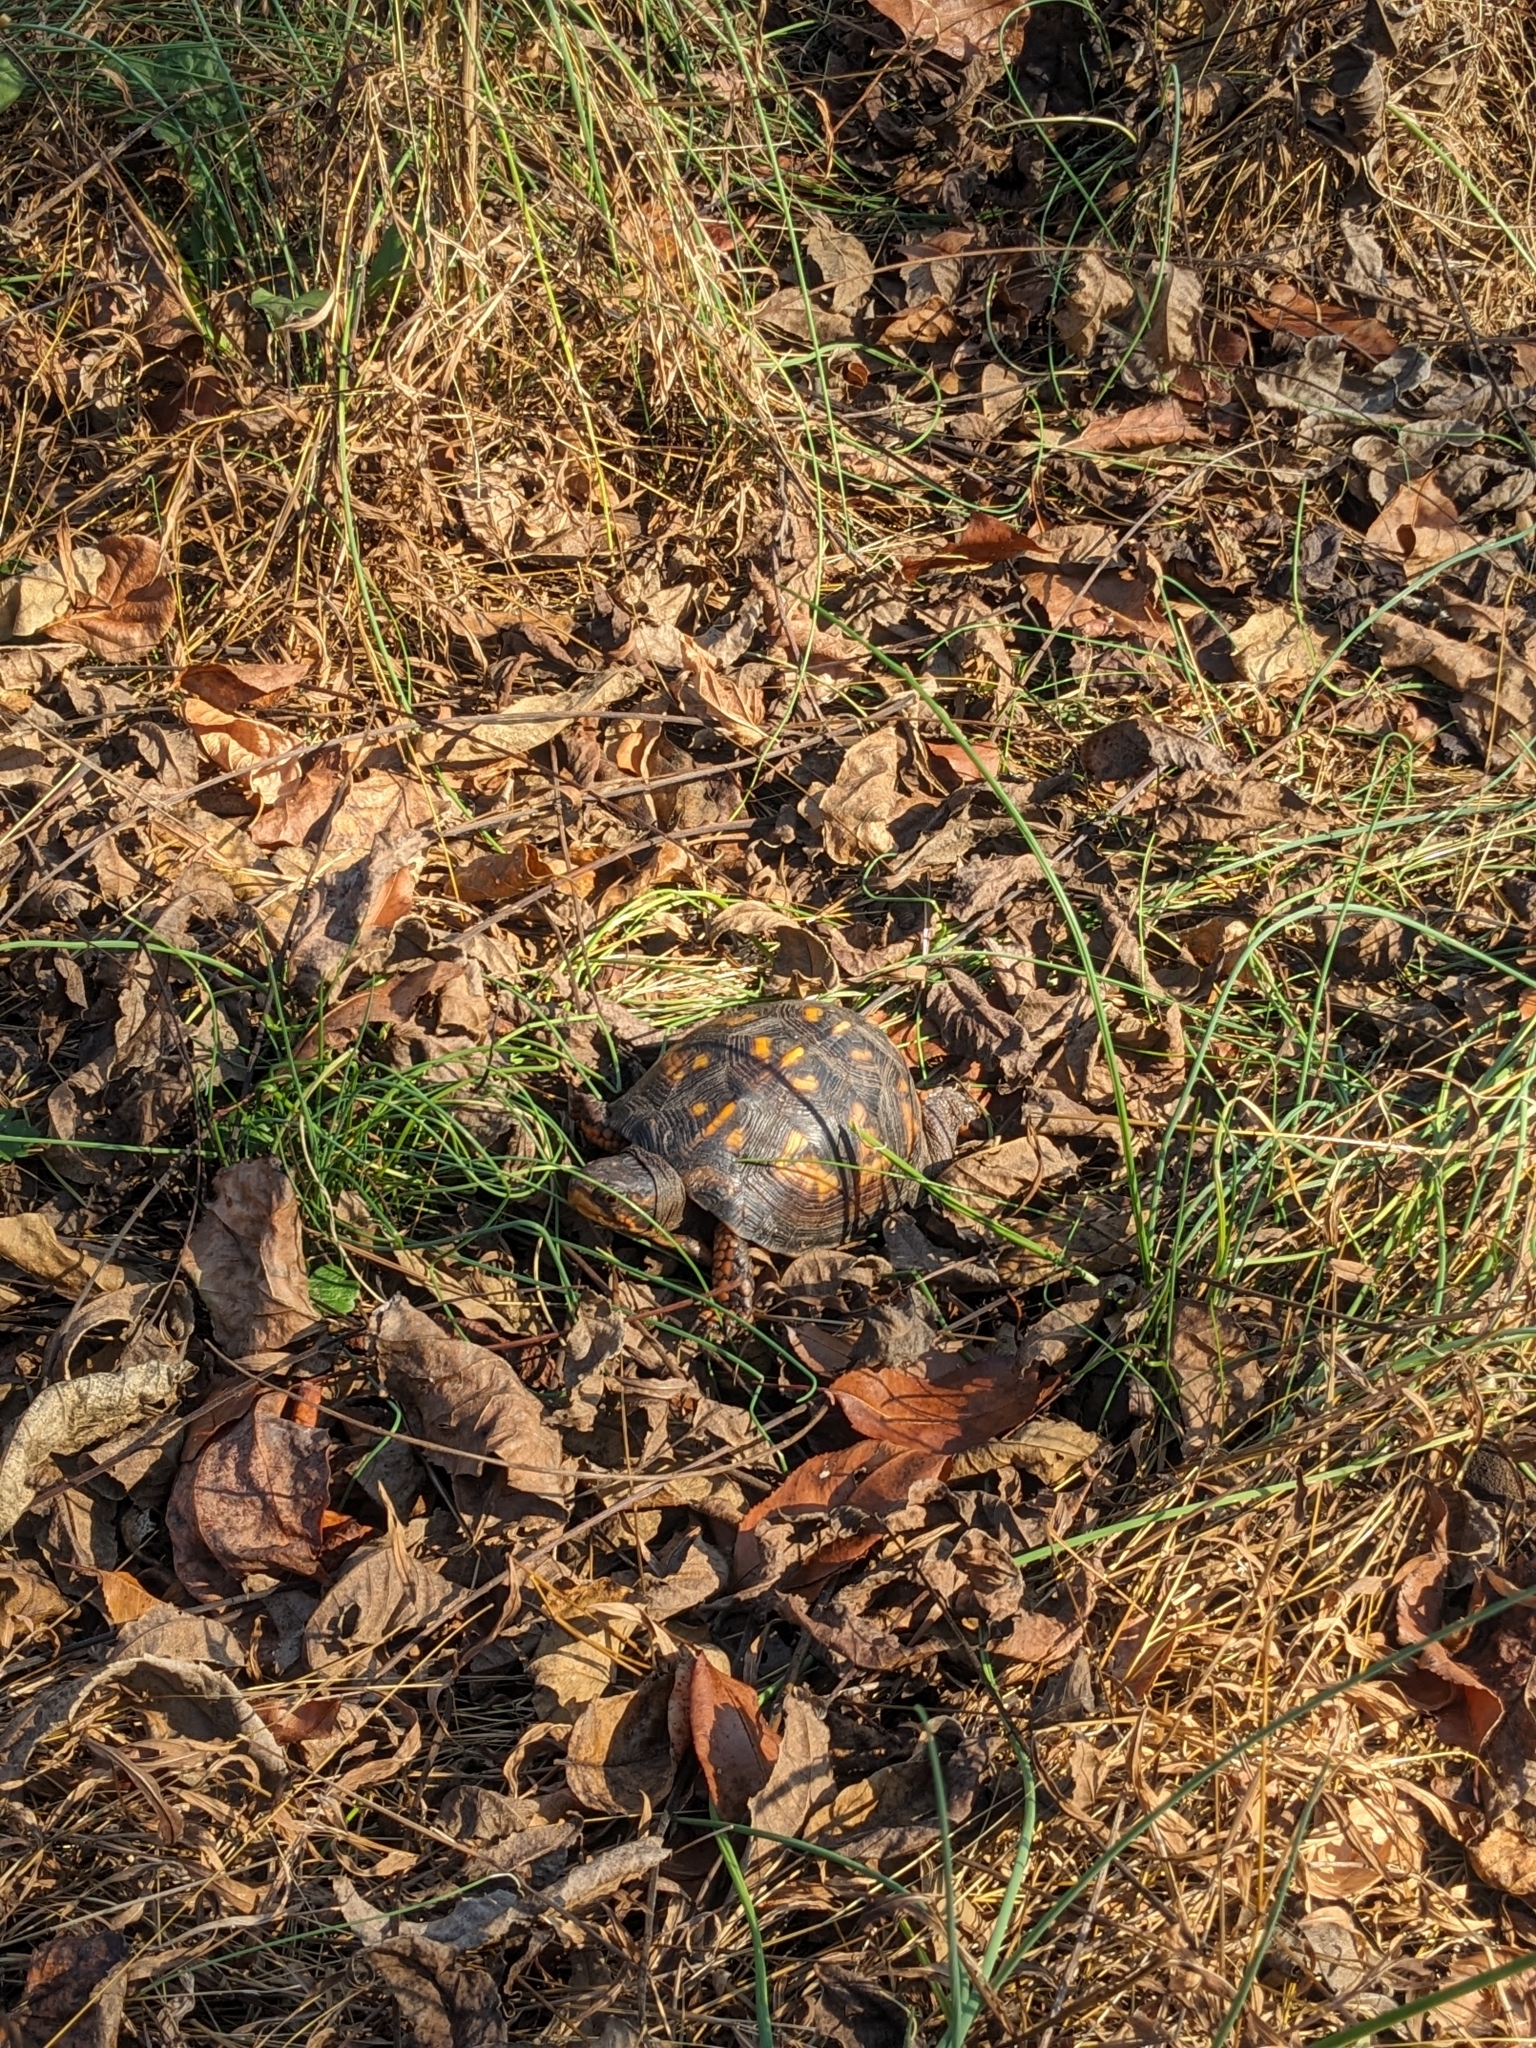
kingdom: Animalia
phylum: Chordata
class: Testudines
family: Emydidae
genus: Terrapene
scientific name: Terrapene carolina
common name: Common box turtle
